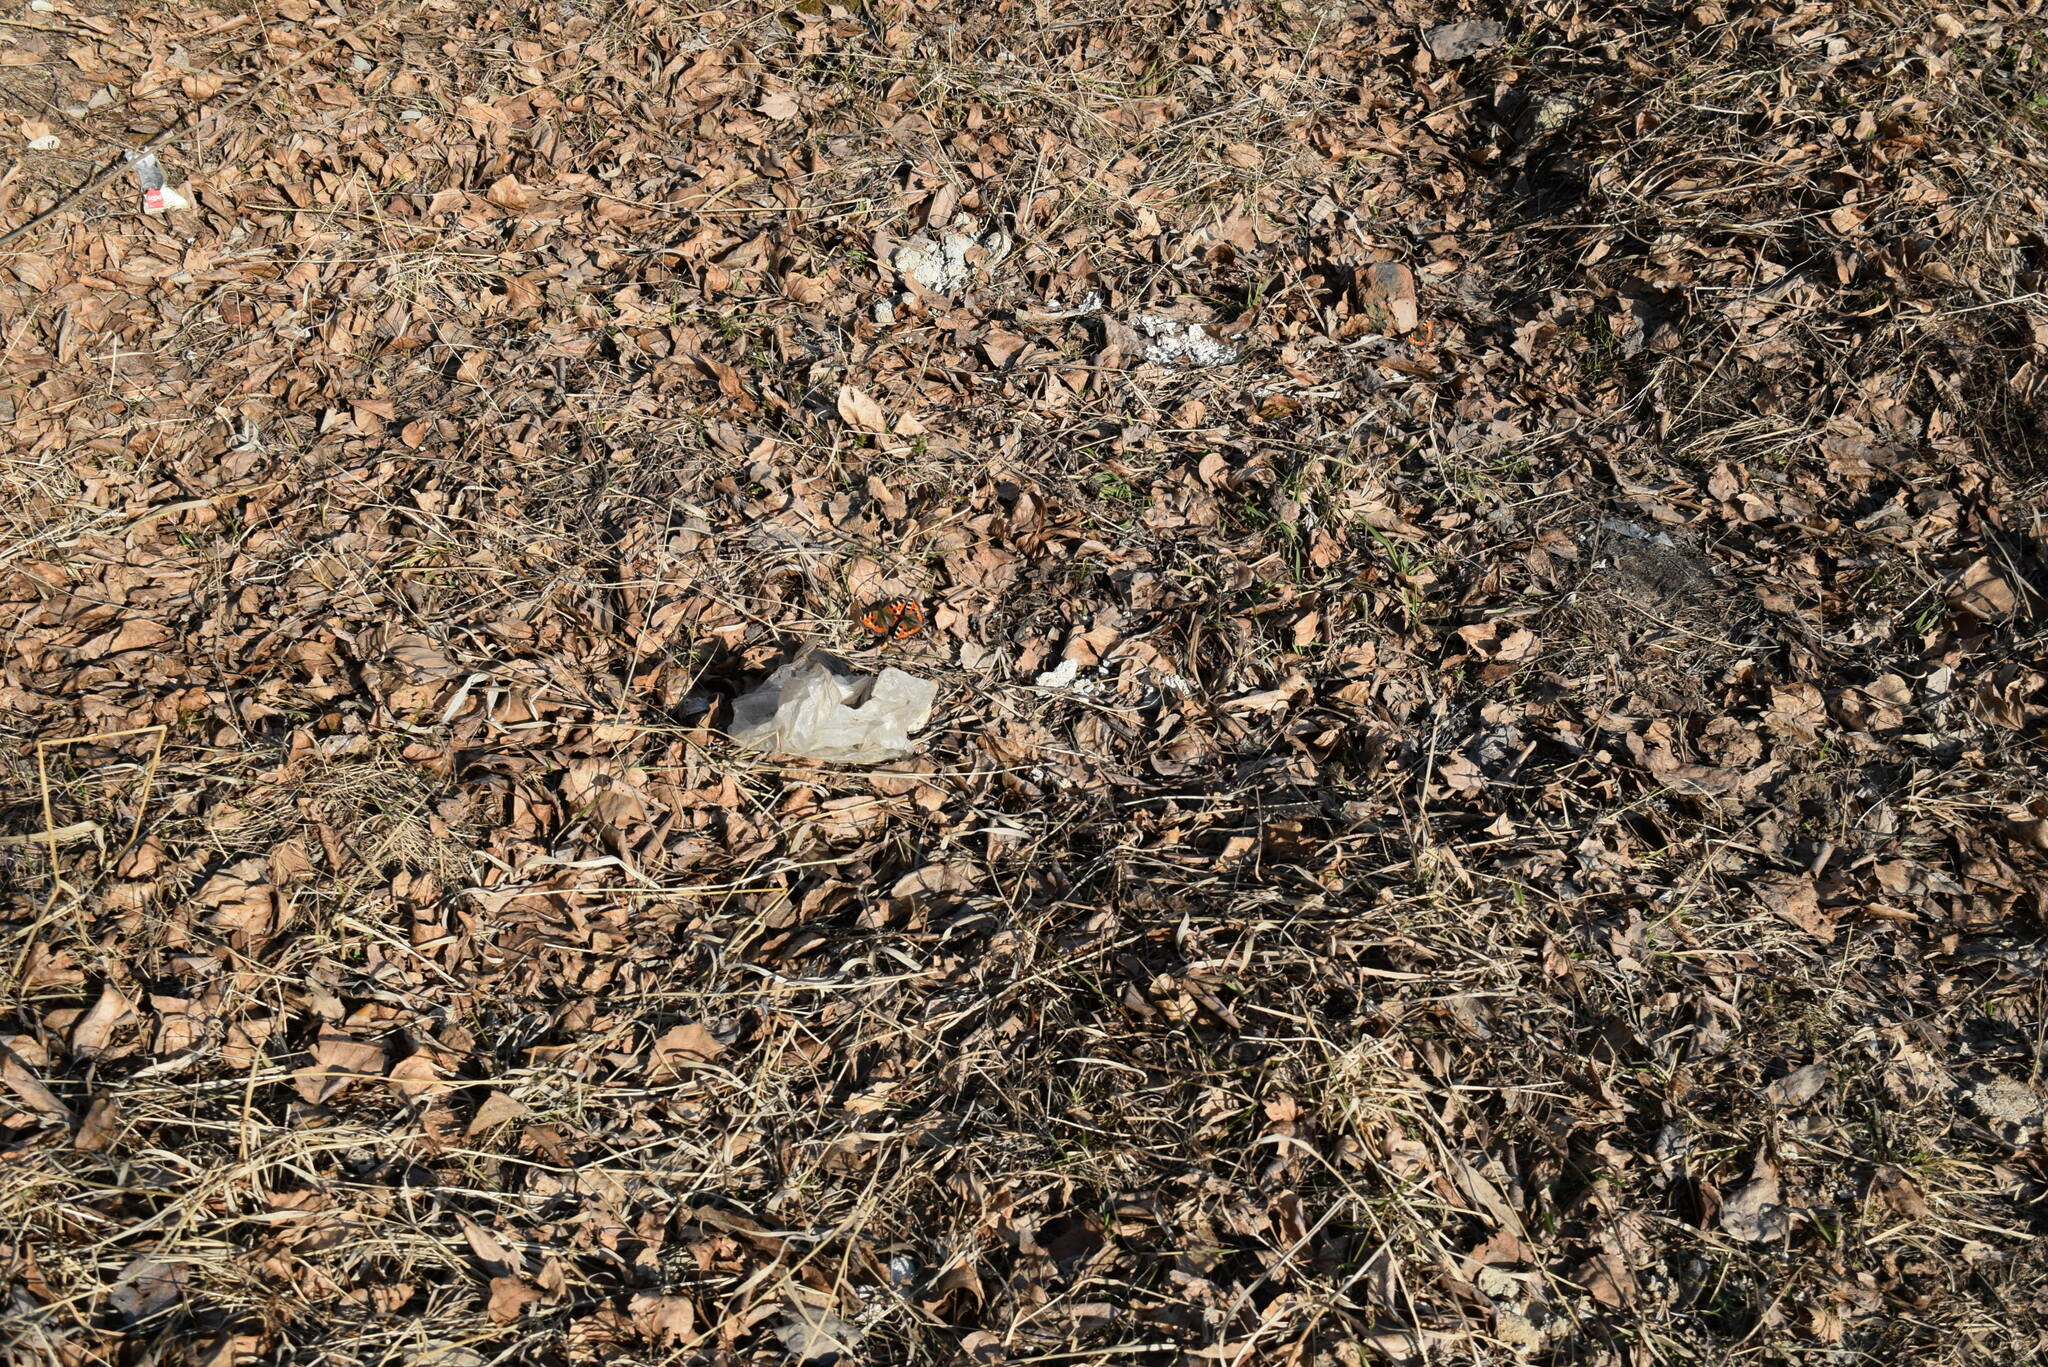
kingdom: Animalia
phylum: Arthropoda
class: Insecta
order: Lepidoptera
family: Nymphalidae
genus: Aglais
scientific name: Aglais urticae
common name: Small tortoiseshell
